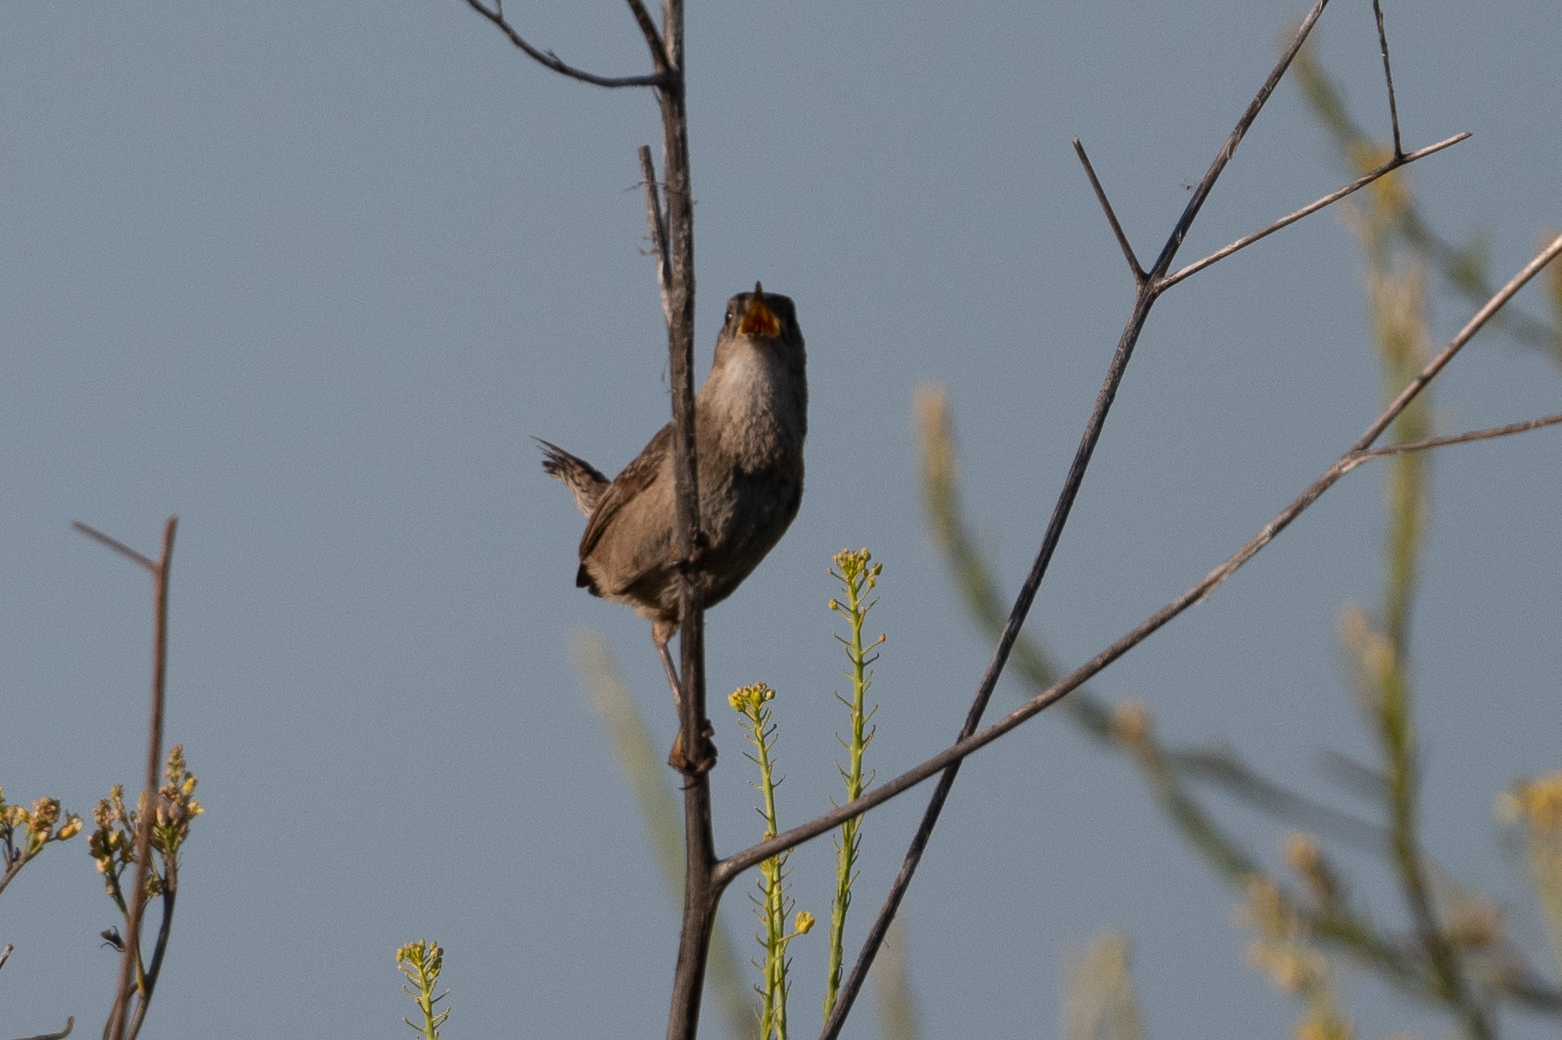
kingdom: Animalia
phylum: Chordata
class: Aves
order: Passeriformes
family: Troglodytidae
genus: Cistothorus
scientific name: Cistothorus palustris
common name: Marsh wren
